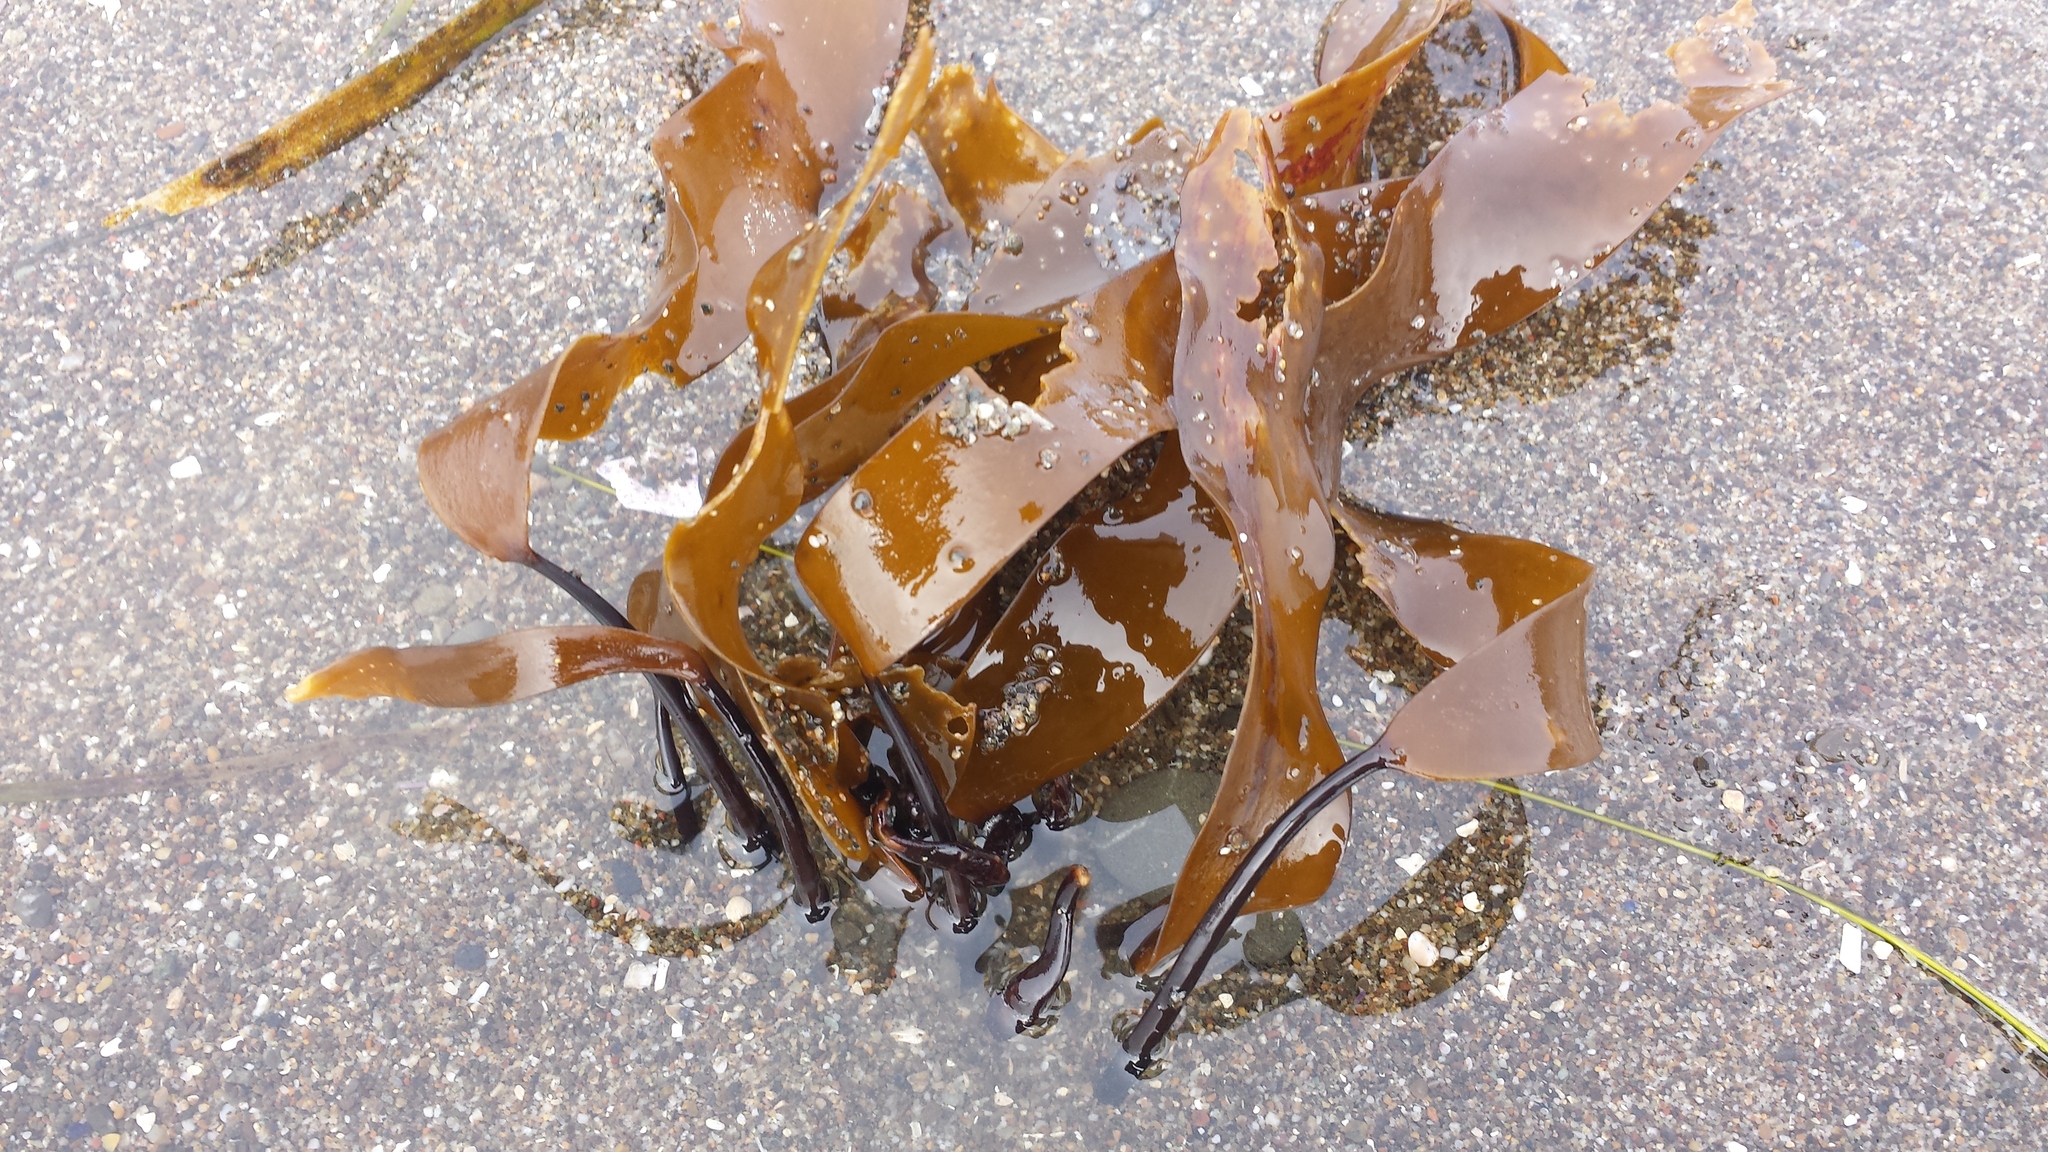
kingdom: Chromista
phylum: Ochrophyta
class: Phaeophyceae
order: Laminariales
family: Laminariaceae
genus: Laminaria
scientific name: Laminaria sinclairii
